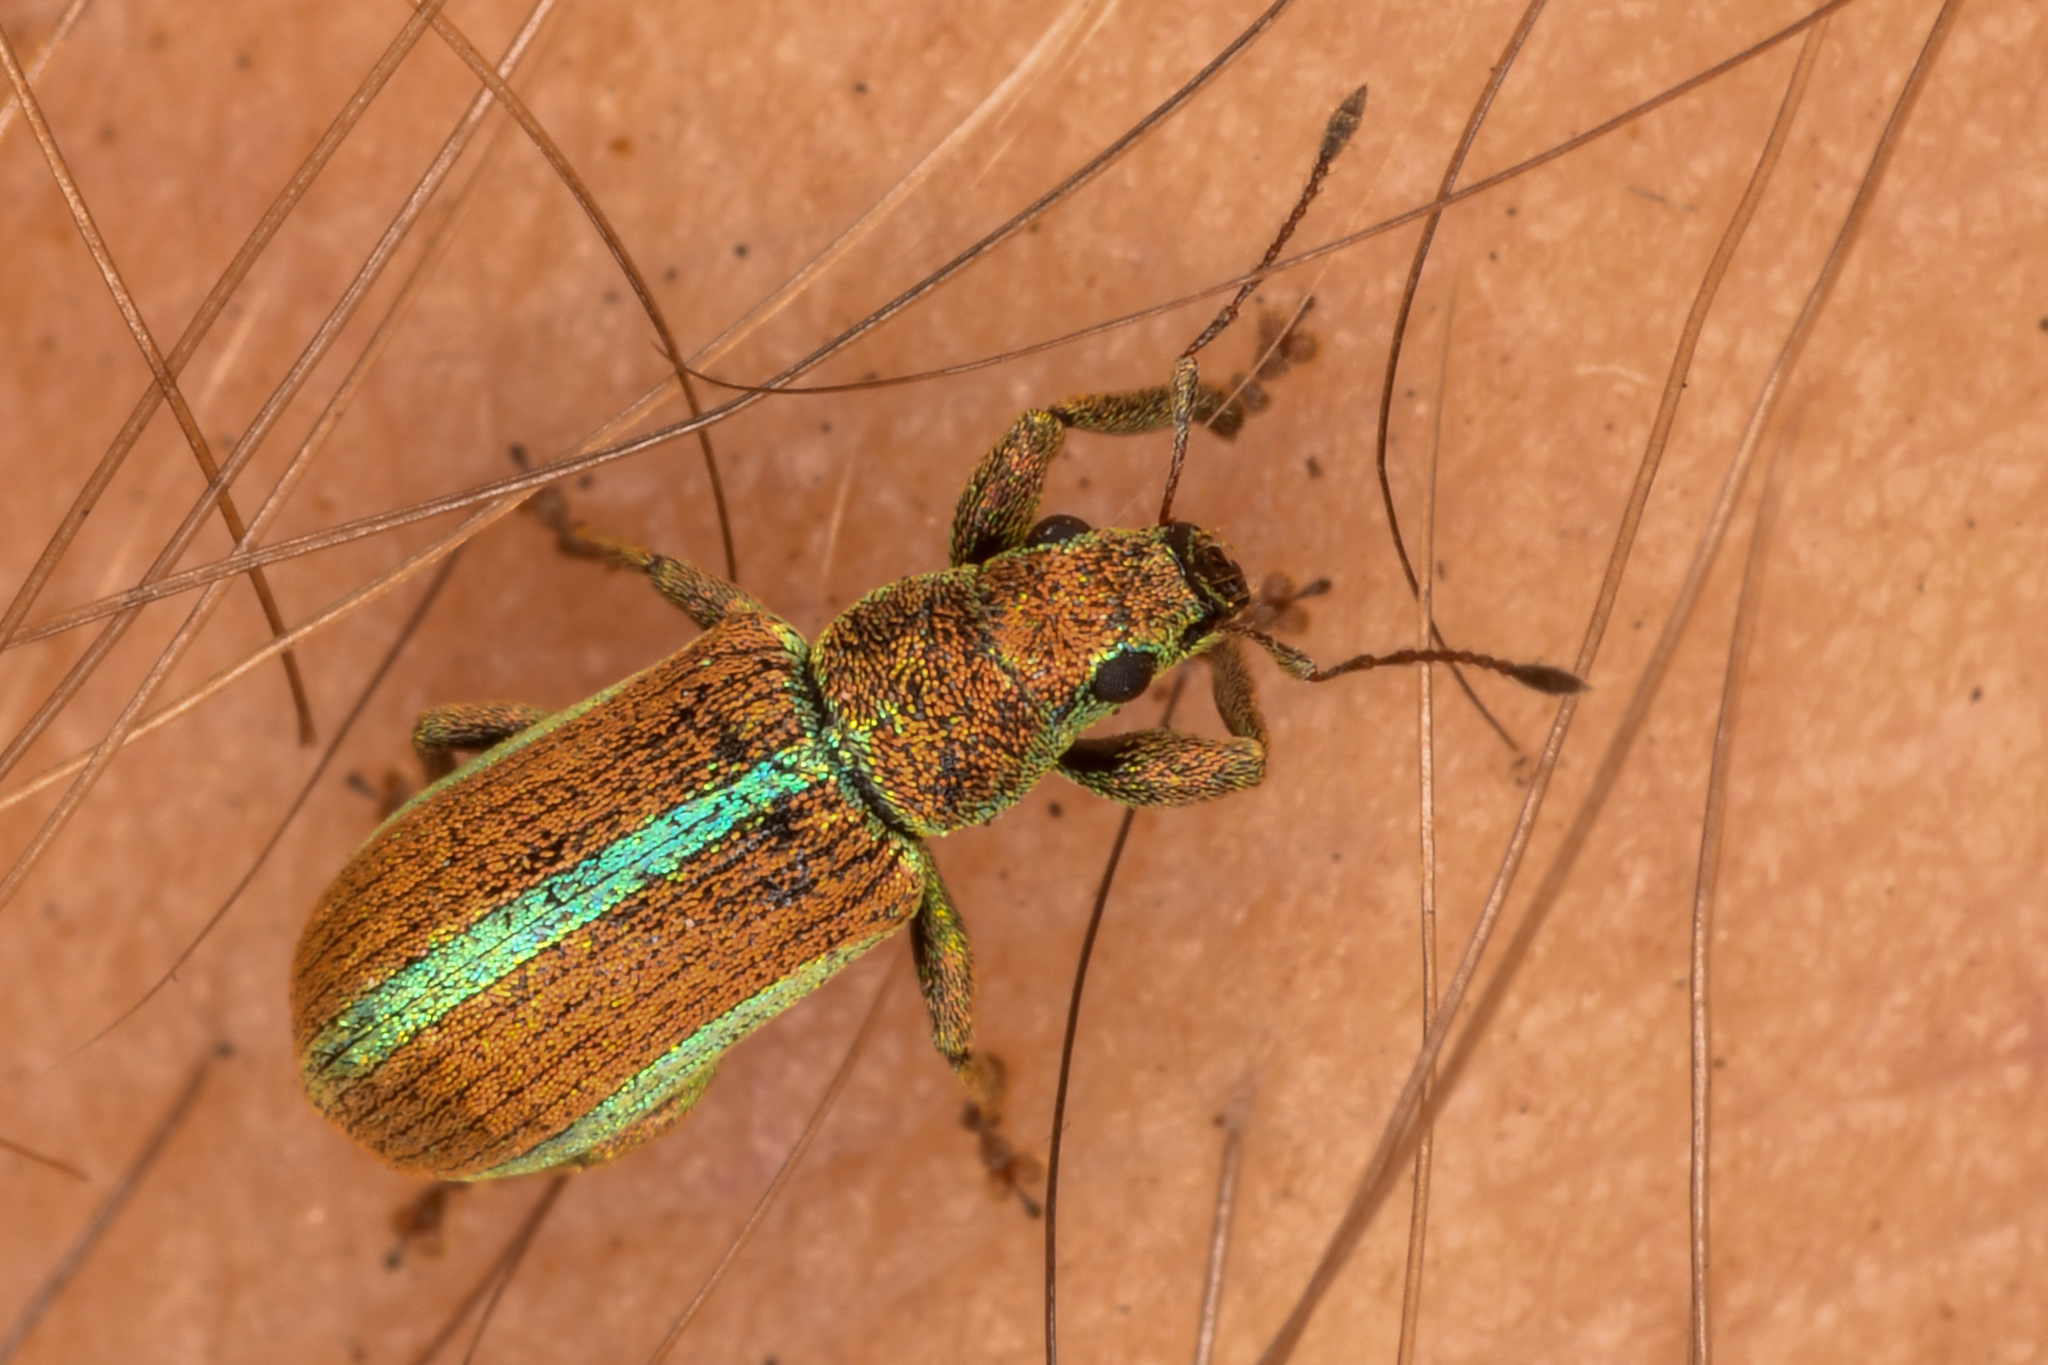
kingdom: Animalia
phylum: Arthropoda
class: Insecta
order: Coleoptera
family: Curculionidae
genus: Pachyrhinus
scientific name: Pachyrhinus elegans
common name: Weevil
